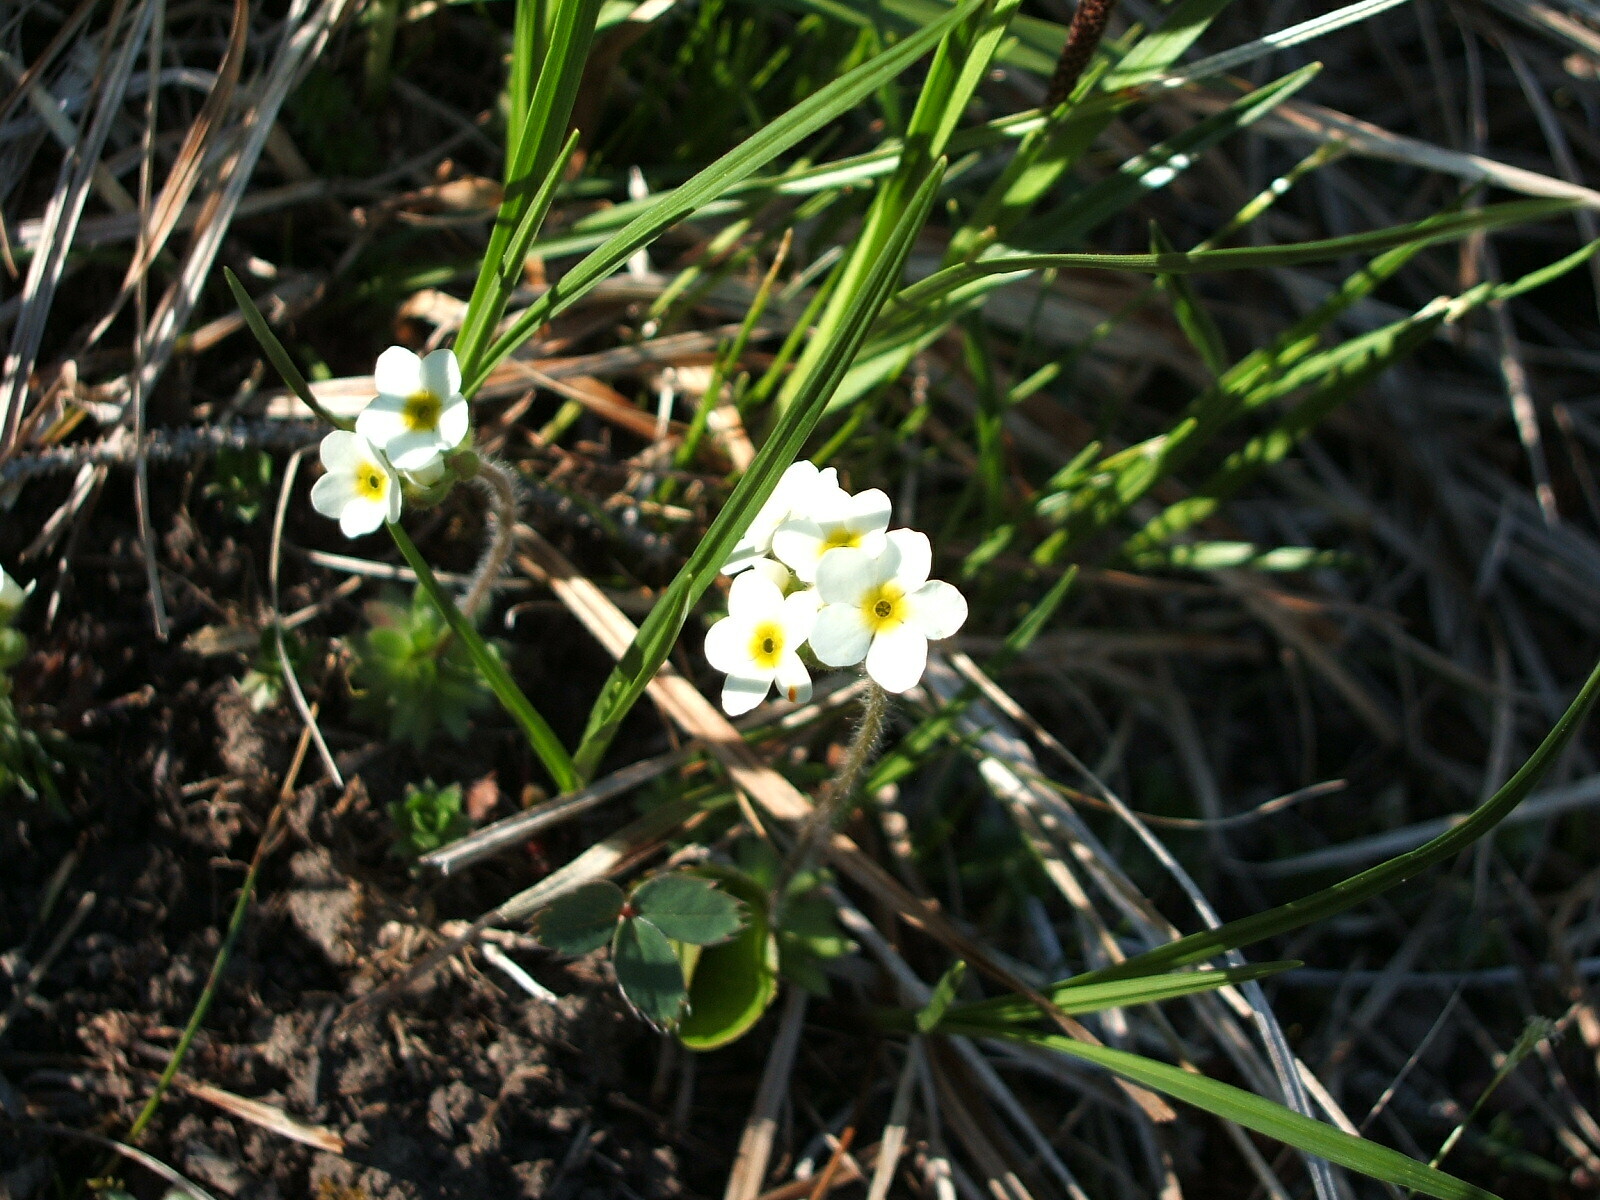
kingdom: Plantae
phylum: Tracheophyta
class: Magnoliopsida
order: Ericales
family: Primulaceae
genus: Androsace
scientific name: Androsace chamaejasme
